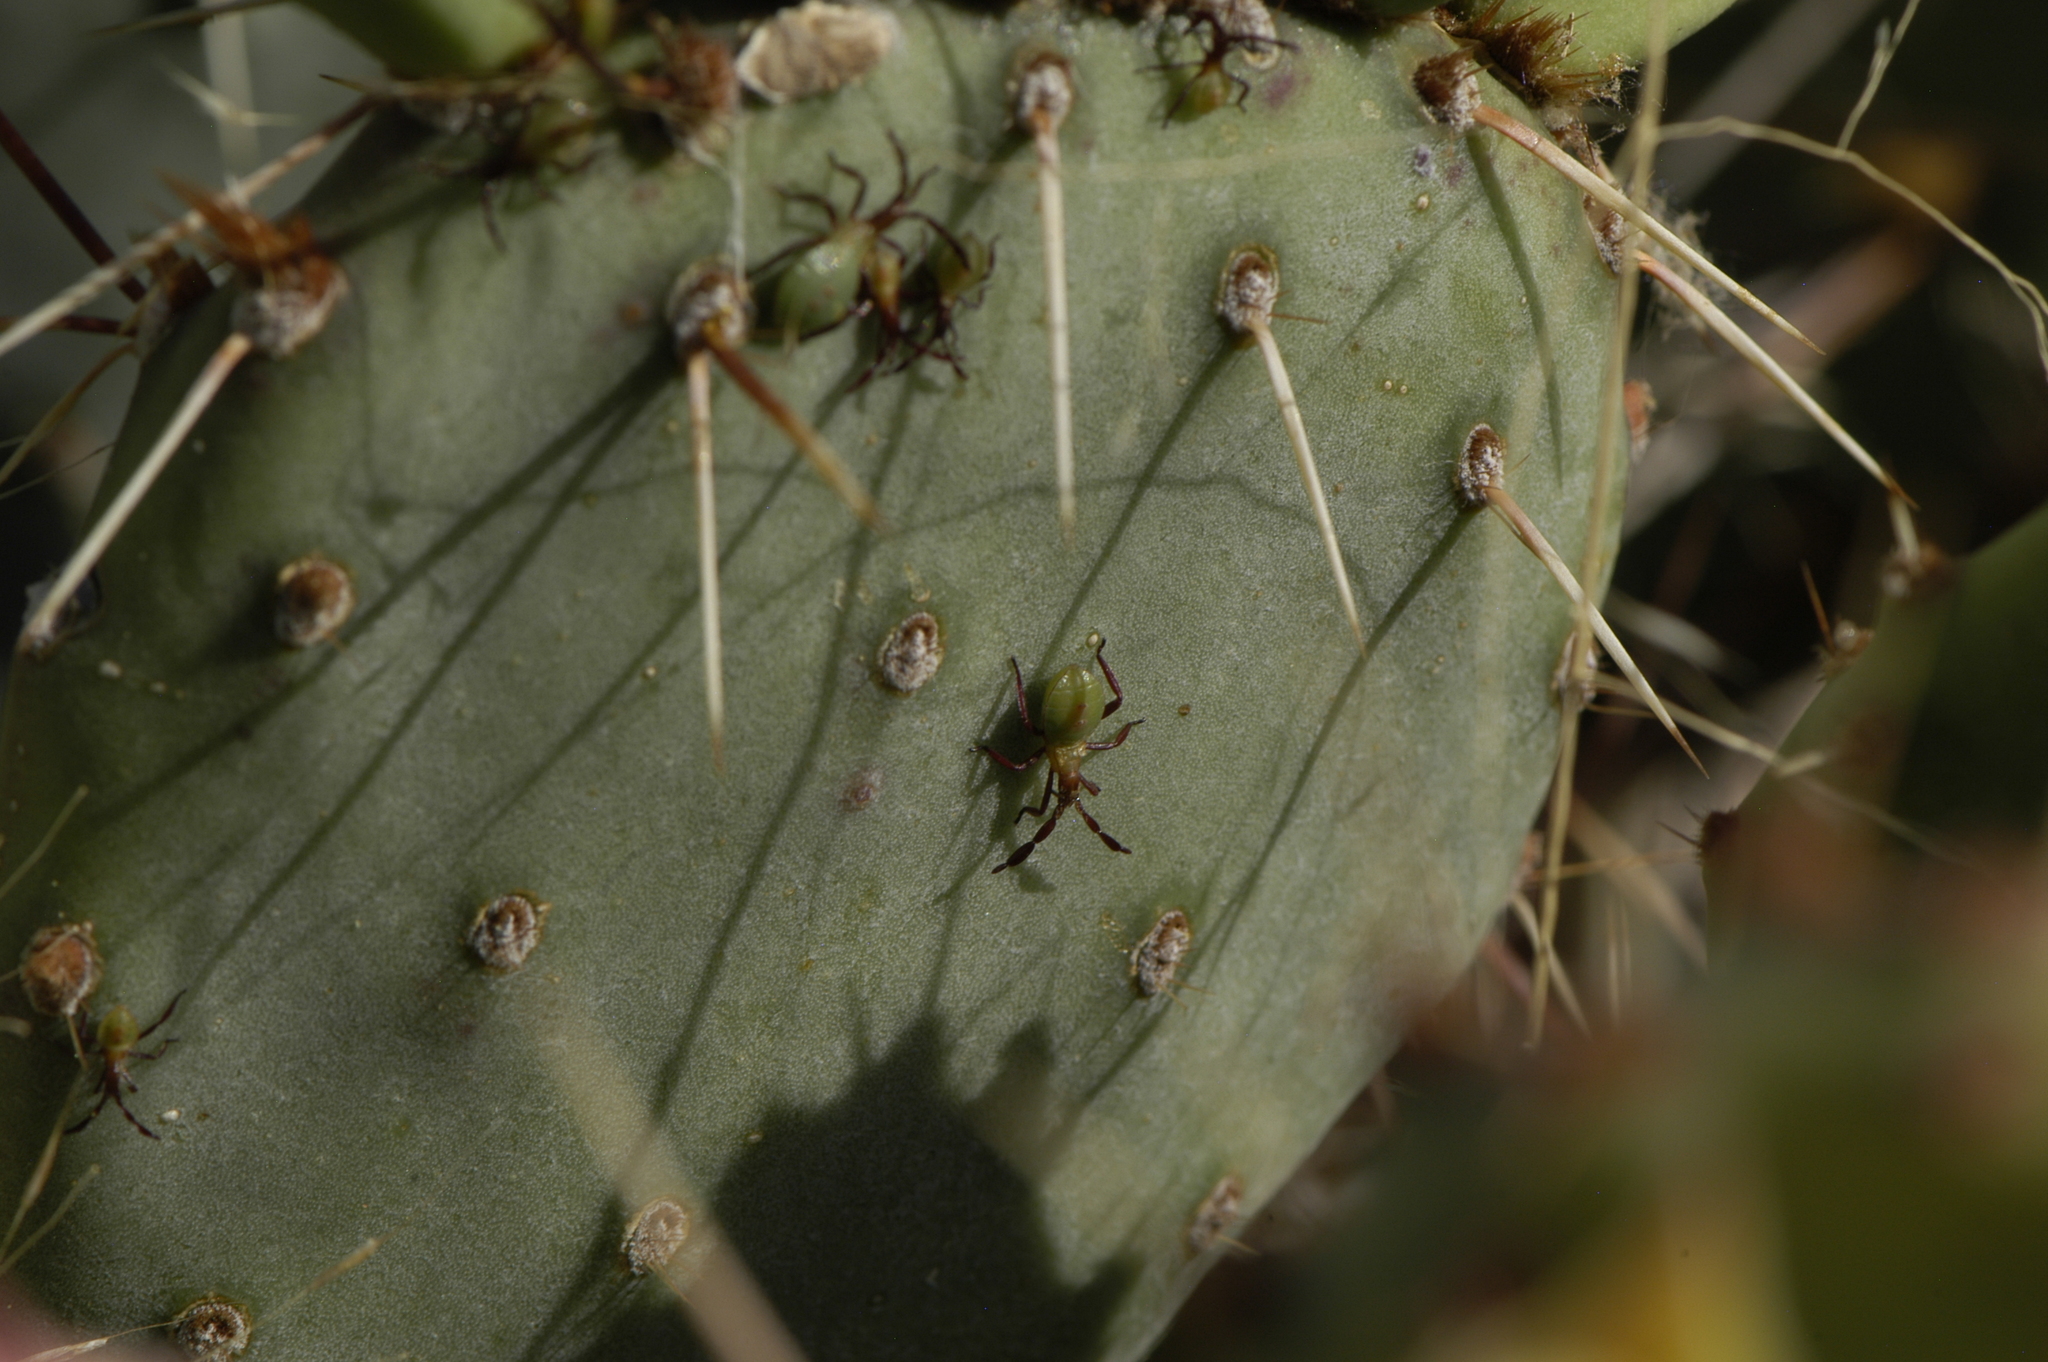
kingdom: Animalia
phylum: Arthropoda
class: Insecta
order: Hemiptera
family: Coreidae
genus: Chelinidea
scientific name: Chelinidea vittiger
